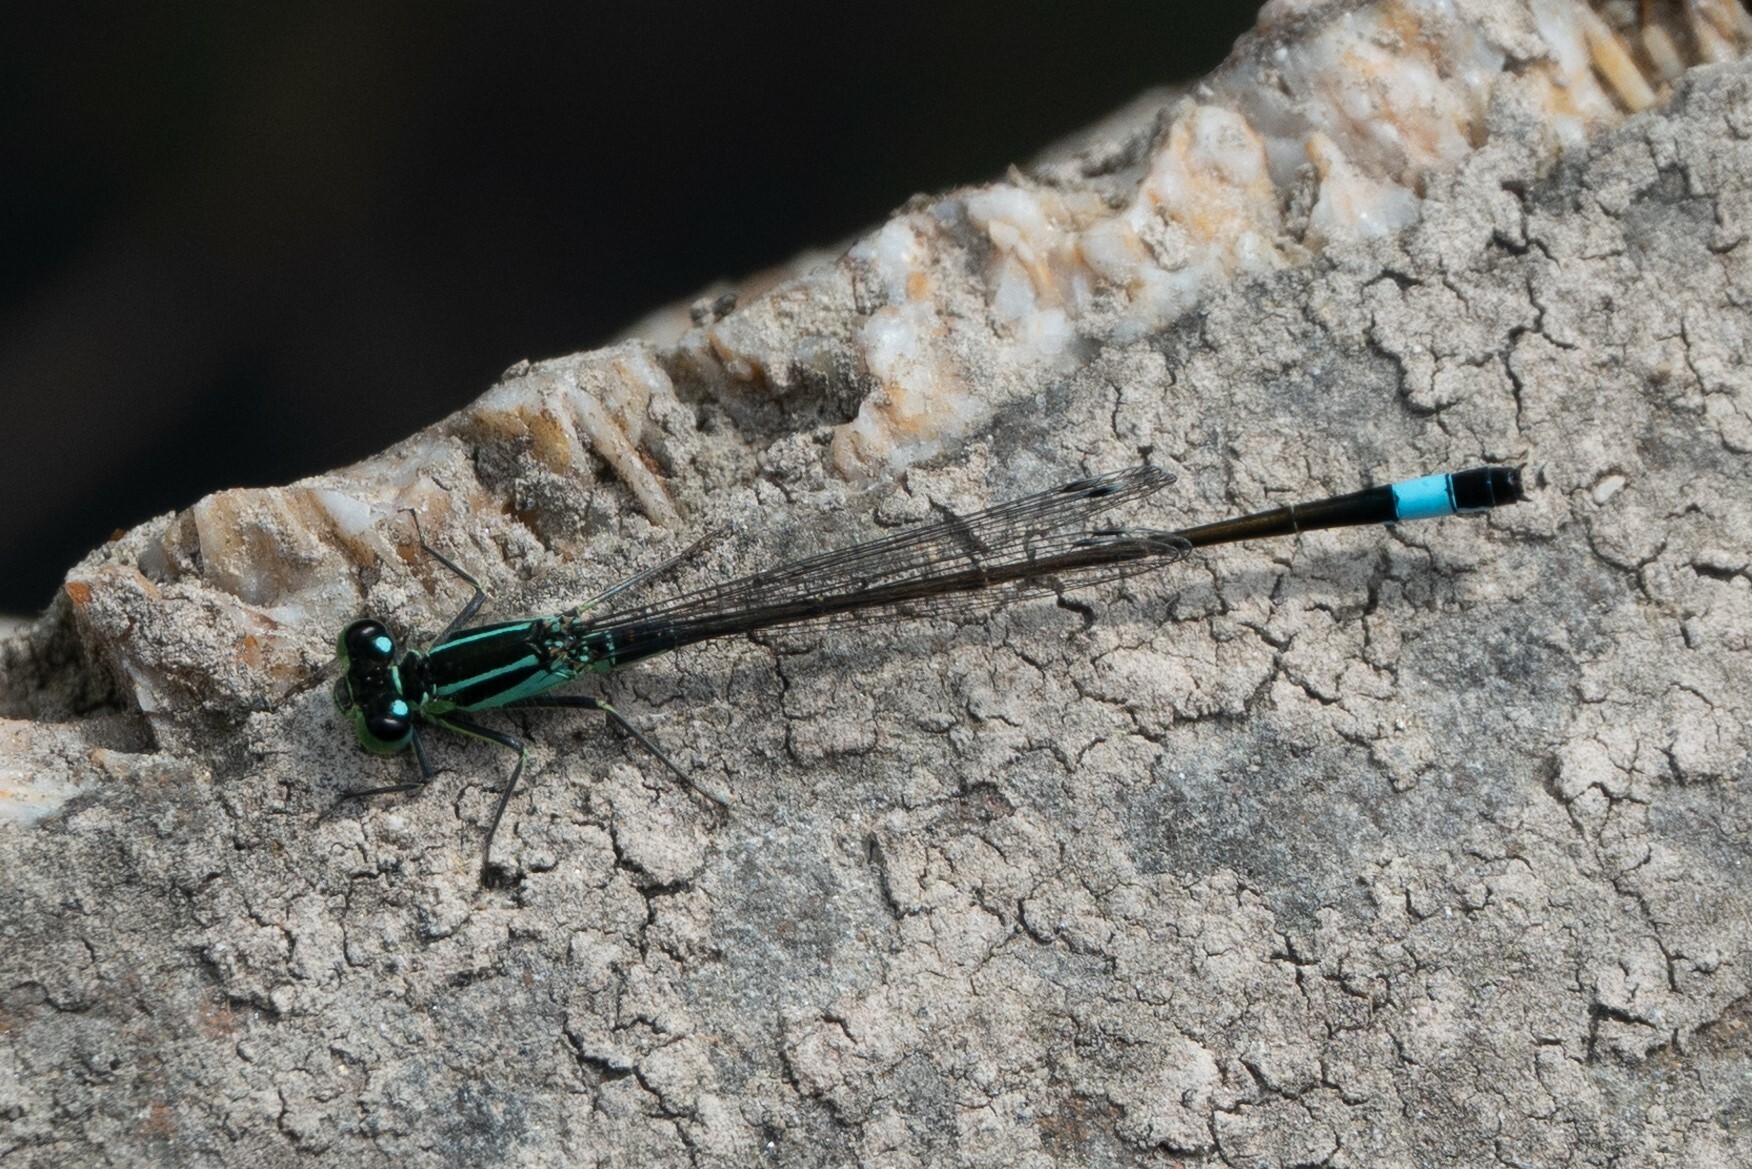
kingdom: Animalia
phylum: Arthropoda
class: Insecta
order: Odonata
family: Coenagrionidae
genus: Ischnura
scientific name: Ischnura elegans
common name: Blue-tailed damselfly
